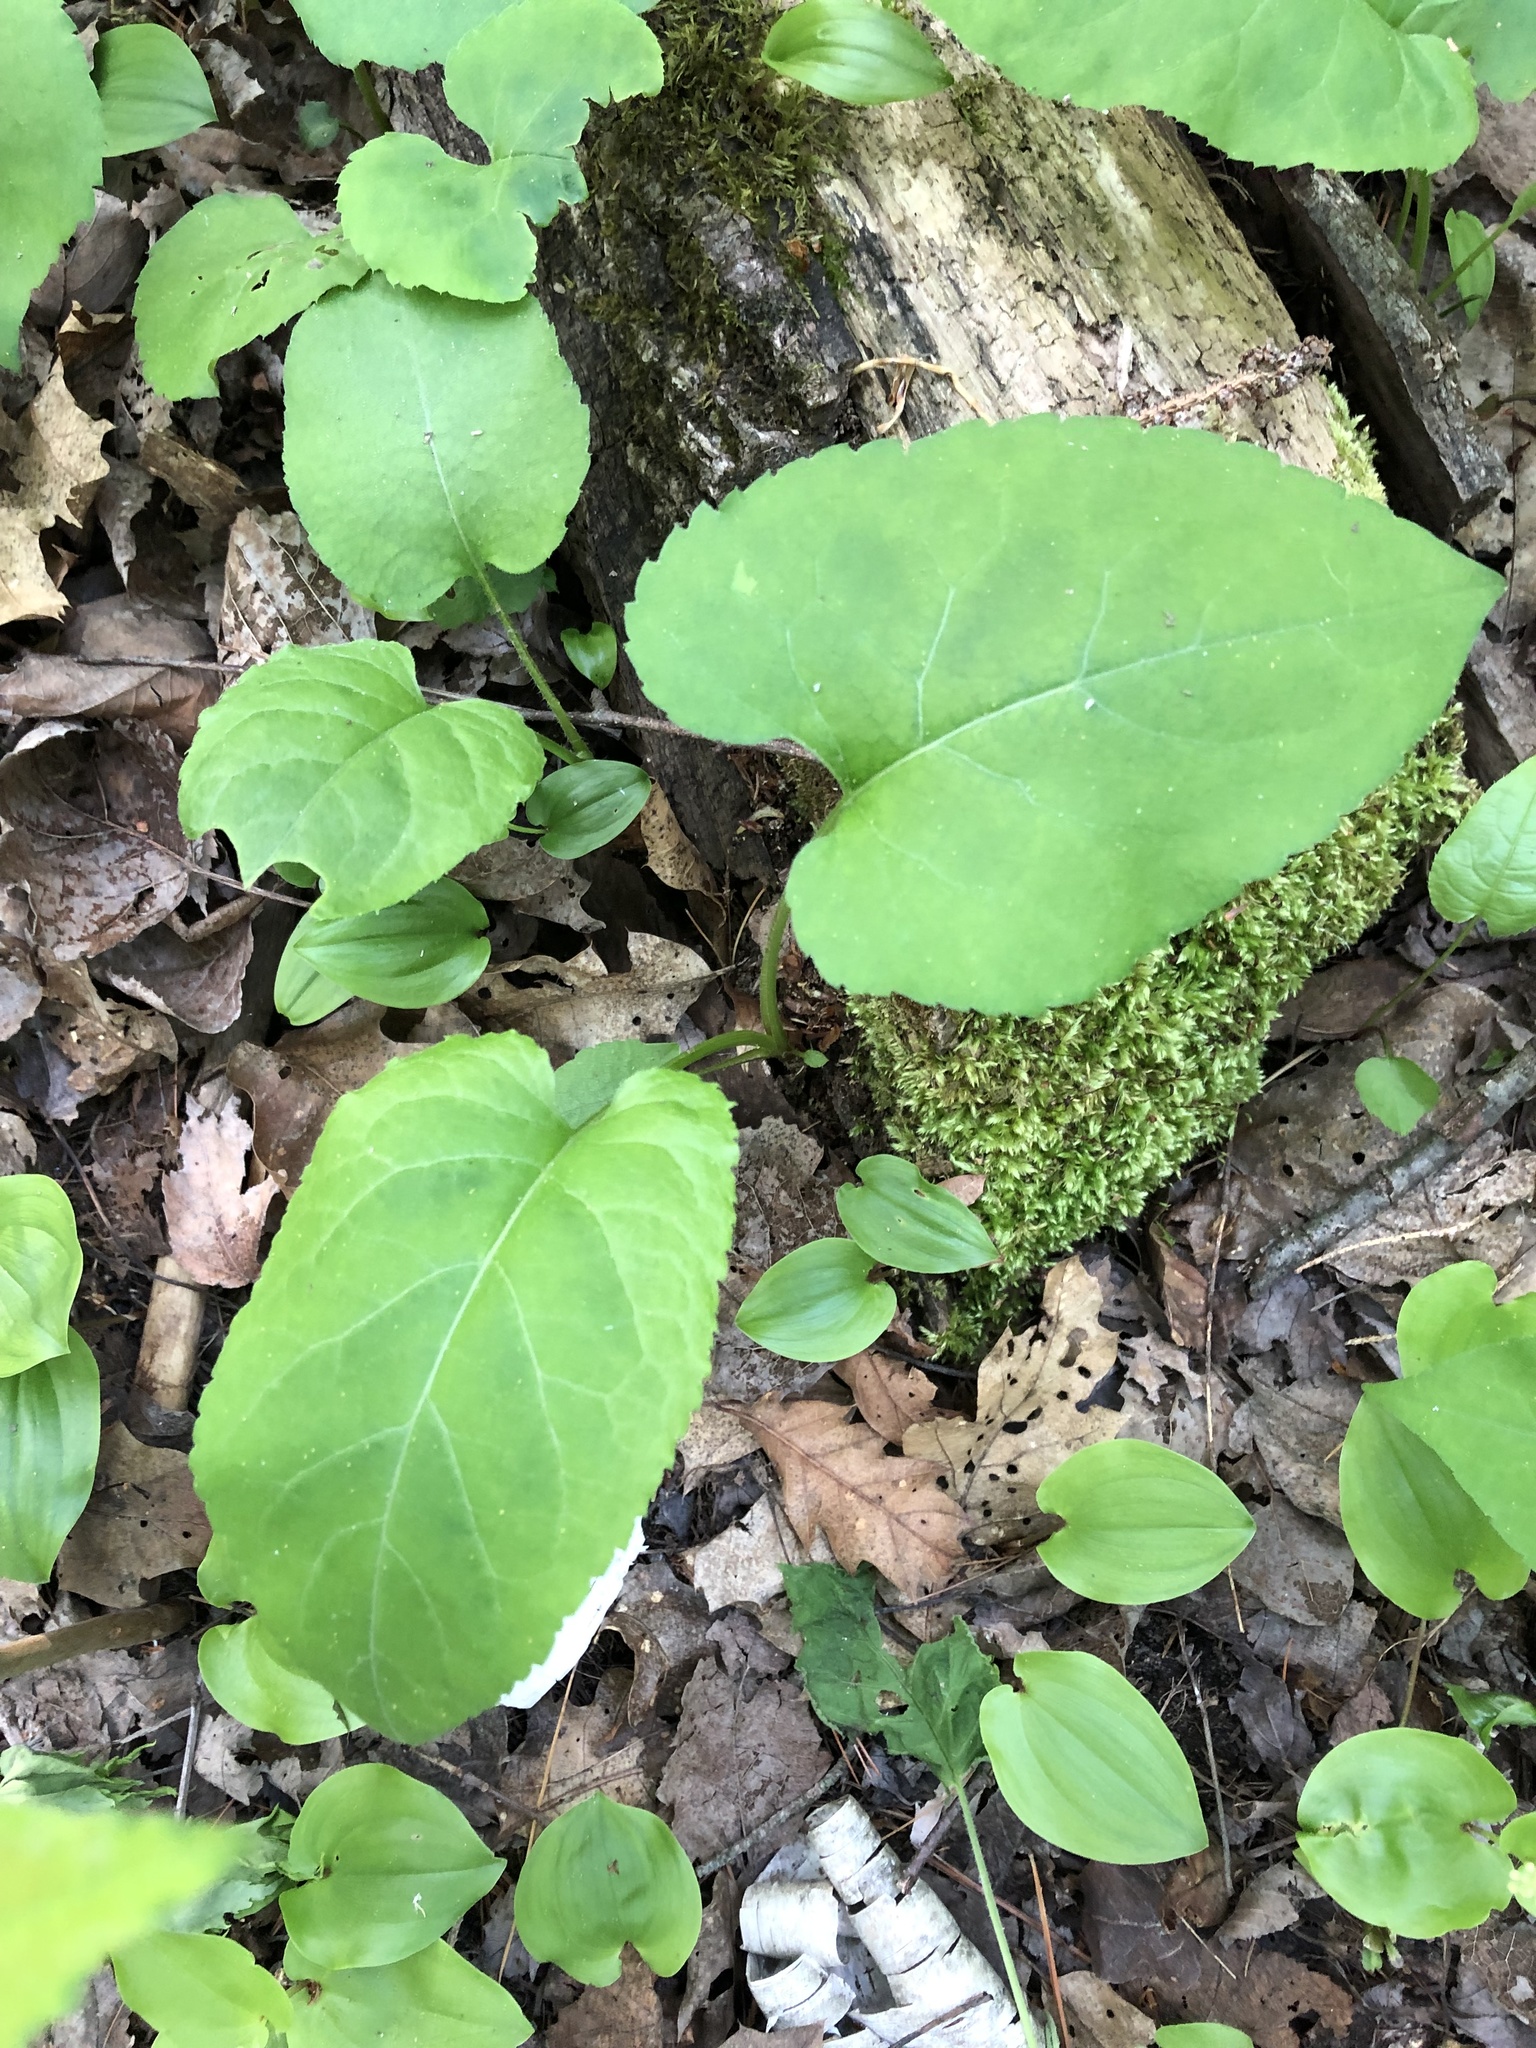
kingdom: Plantae
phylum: Tracheophyta
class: Magnoliopsida
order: Asterales
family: Asteraceae
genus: Eurybia
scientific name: Eurybia macrophylla
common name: Big-leaved aster
